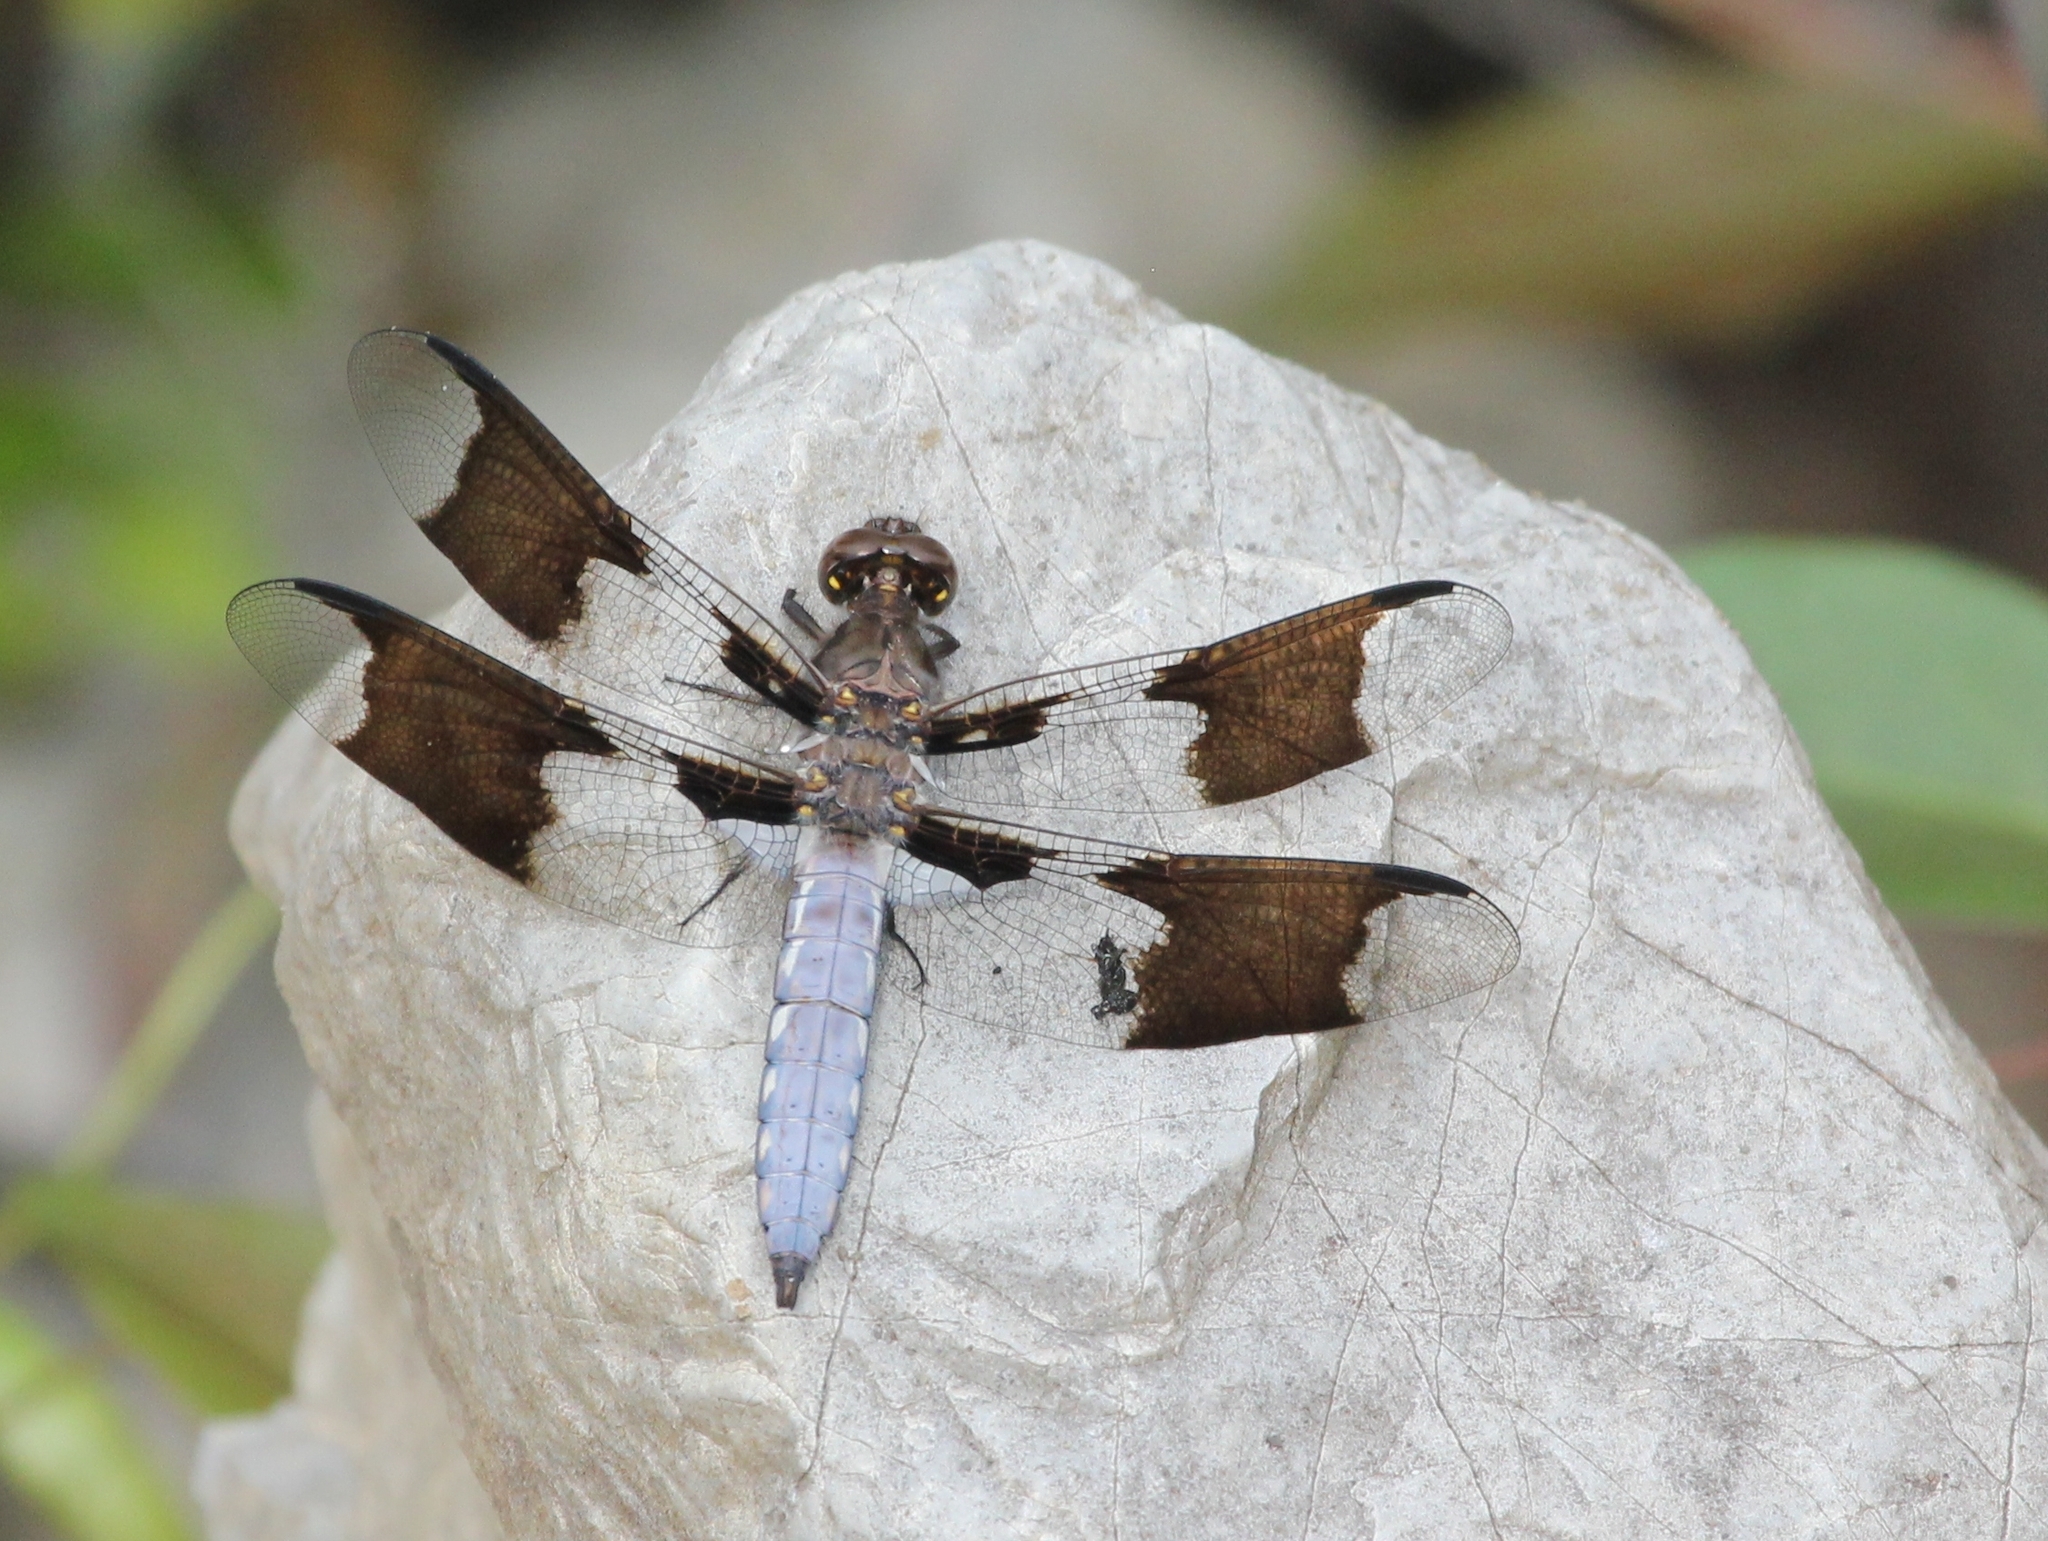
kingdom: Animalia
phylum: Arthropoda
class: Insecta
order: Odonata
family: Libellulidae
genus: Plathemis
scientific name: Plathemis lydia
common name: Common whitetail
